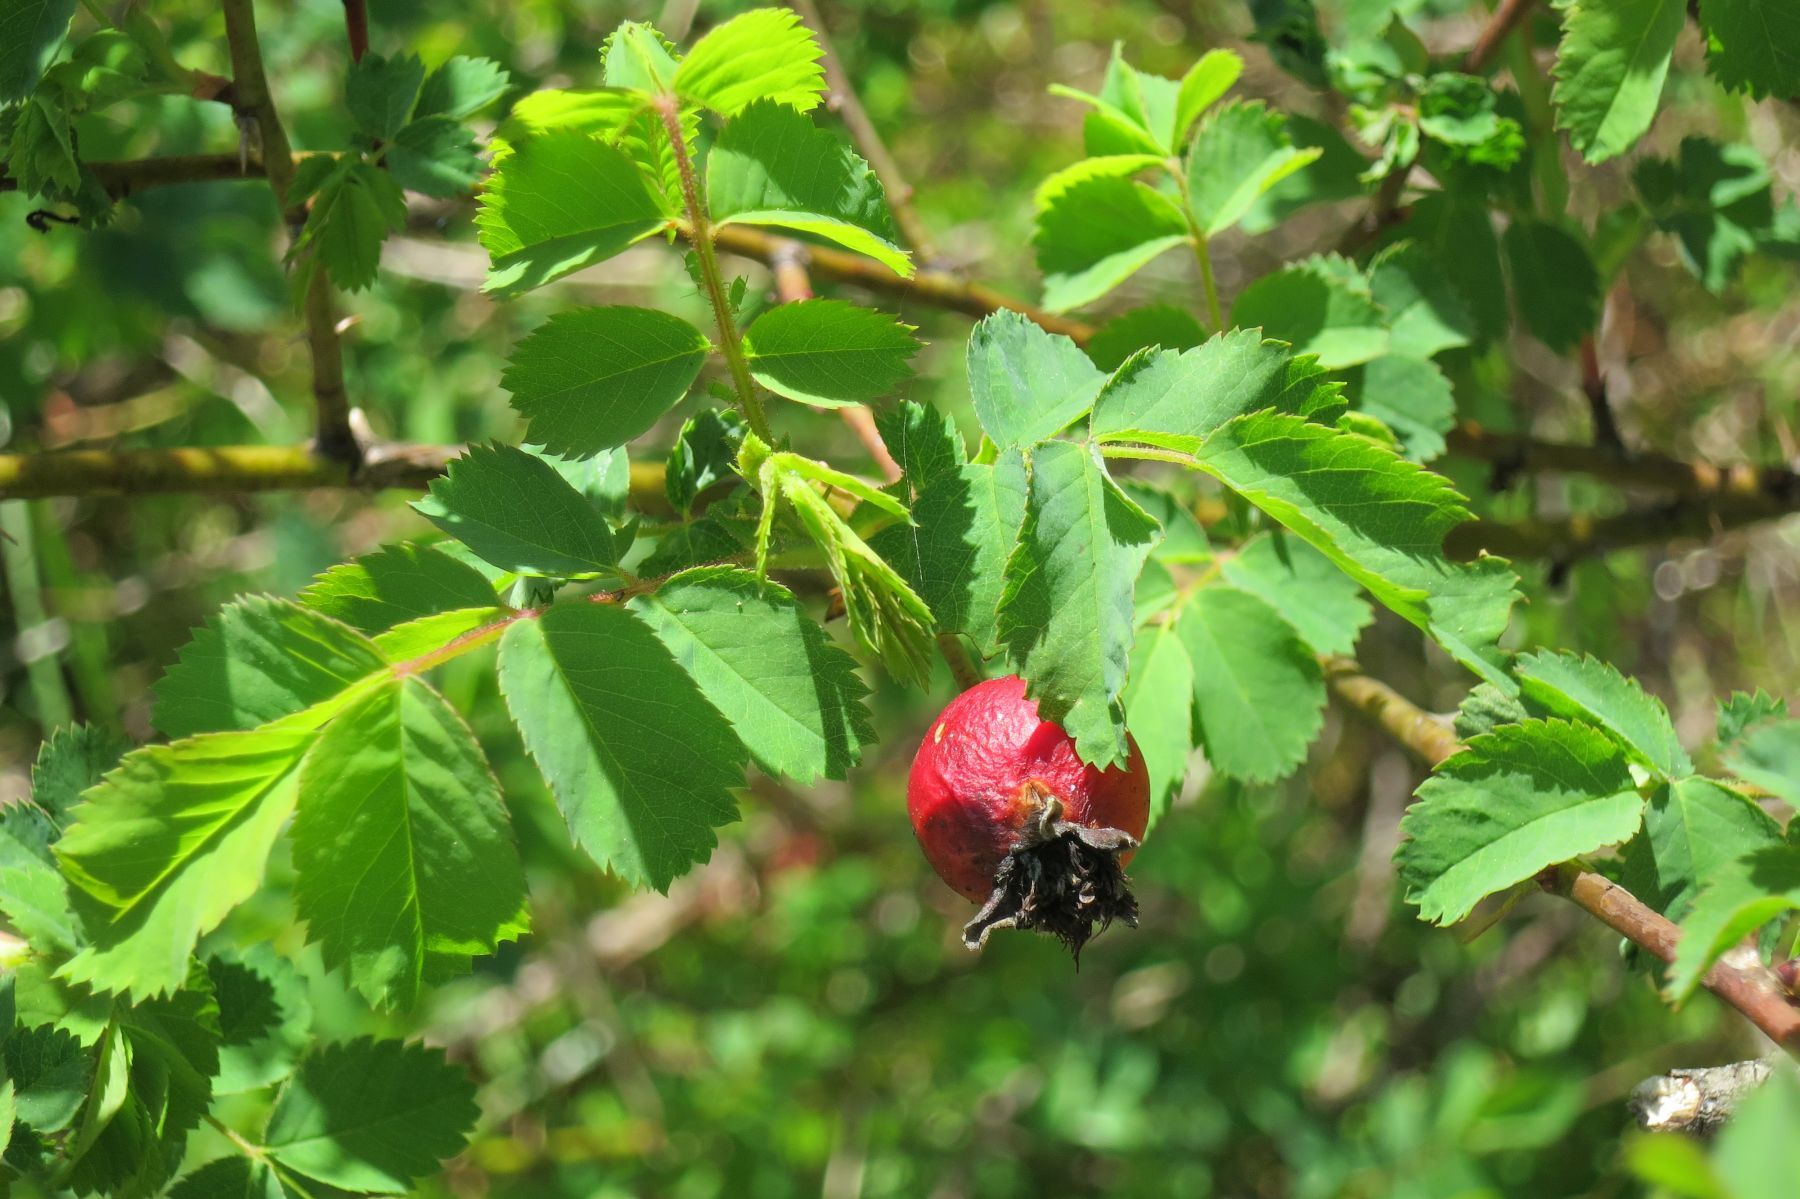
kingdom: Plantae
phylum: Tracheophyta
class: Magnoliopsida
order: Rosales
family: Rosaceae
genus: Rosa
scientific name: Rosa nutkana
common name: Nootka rose
